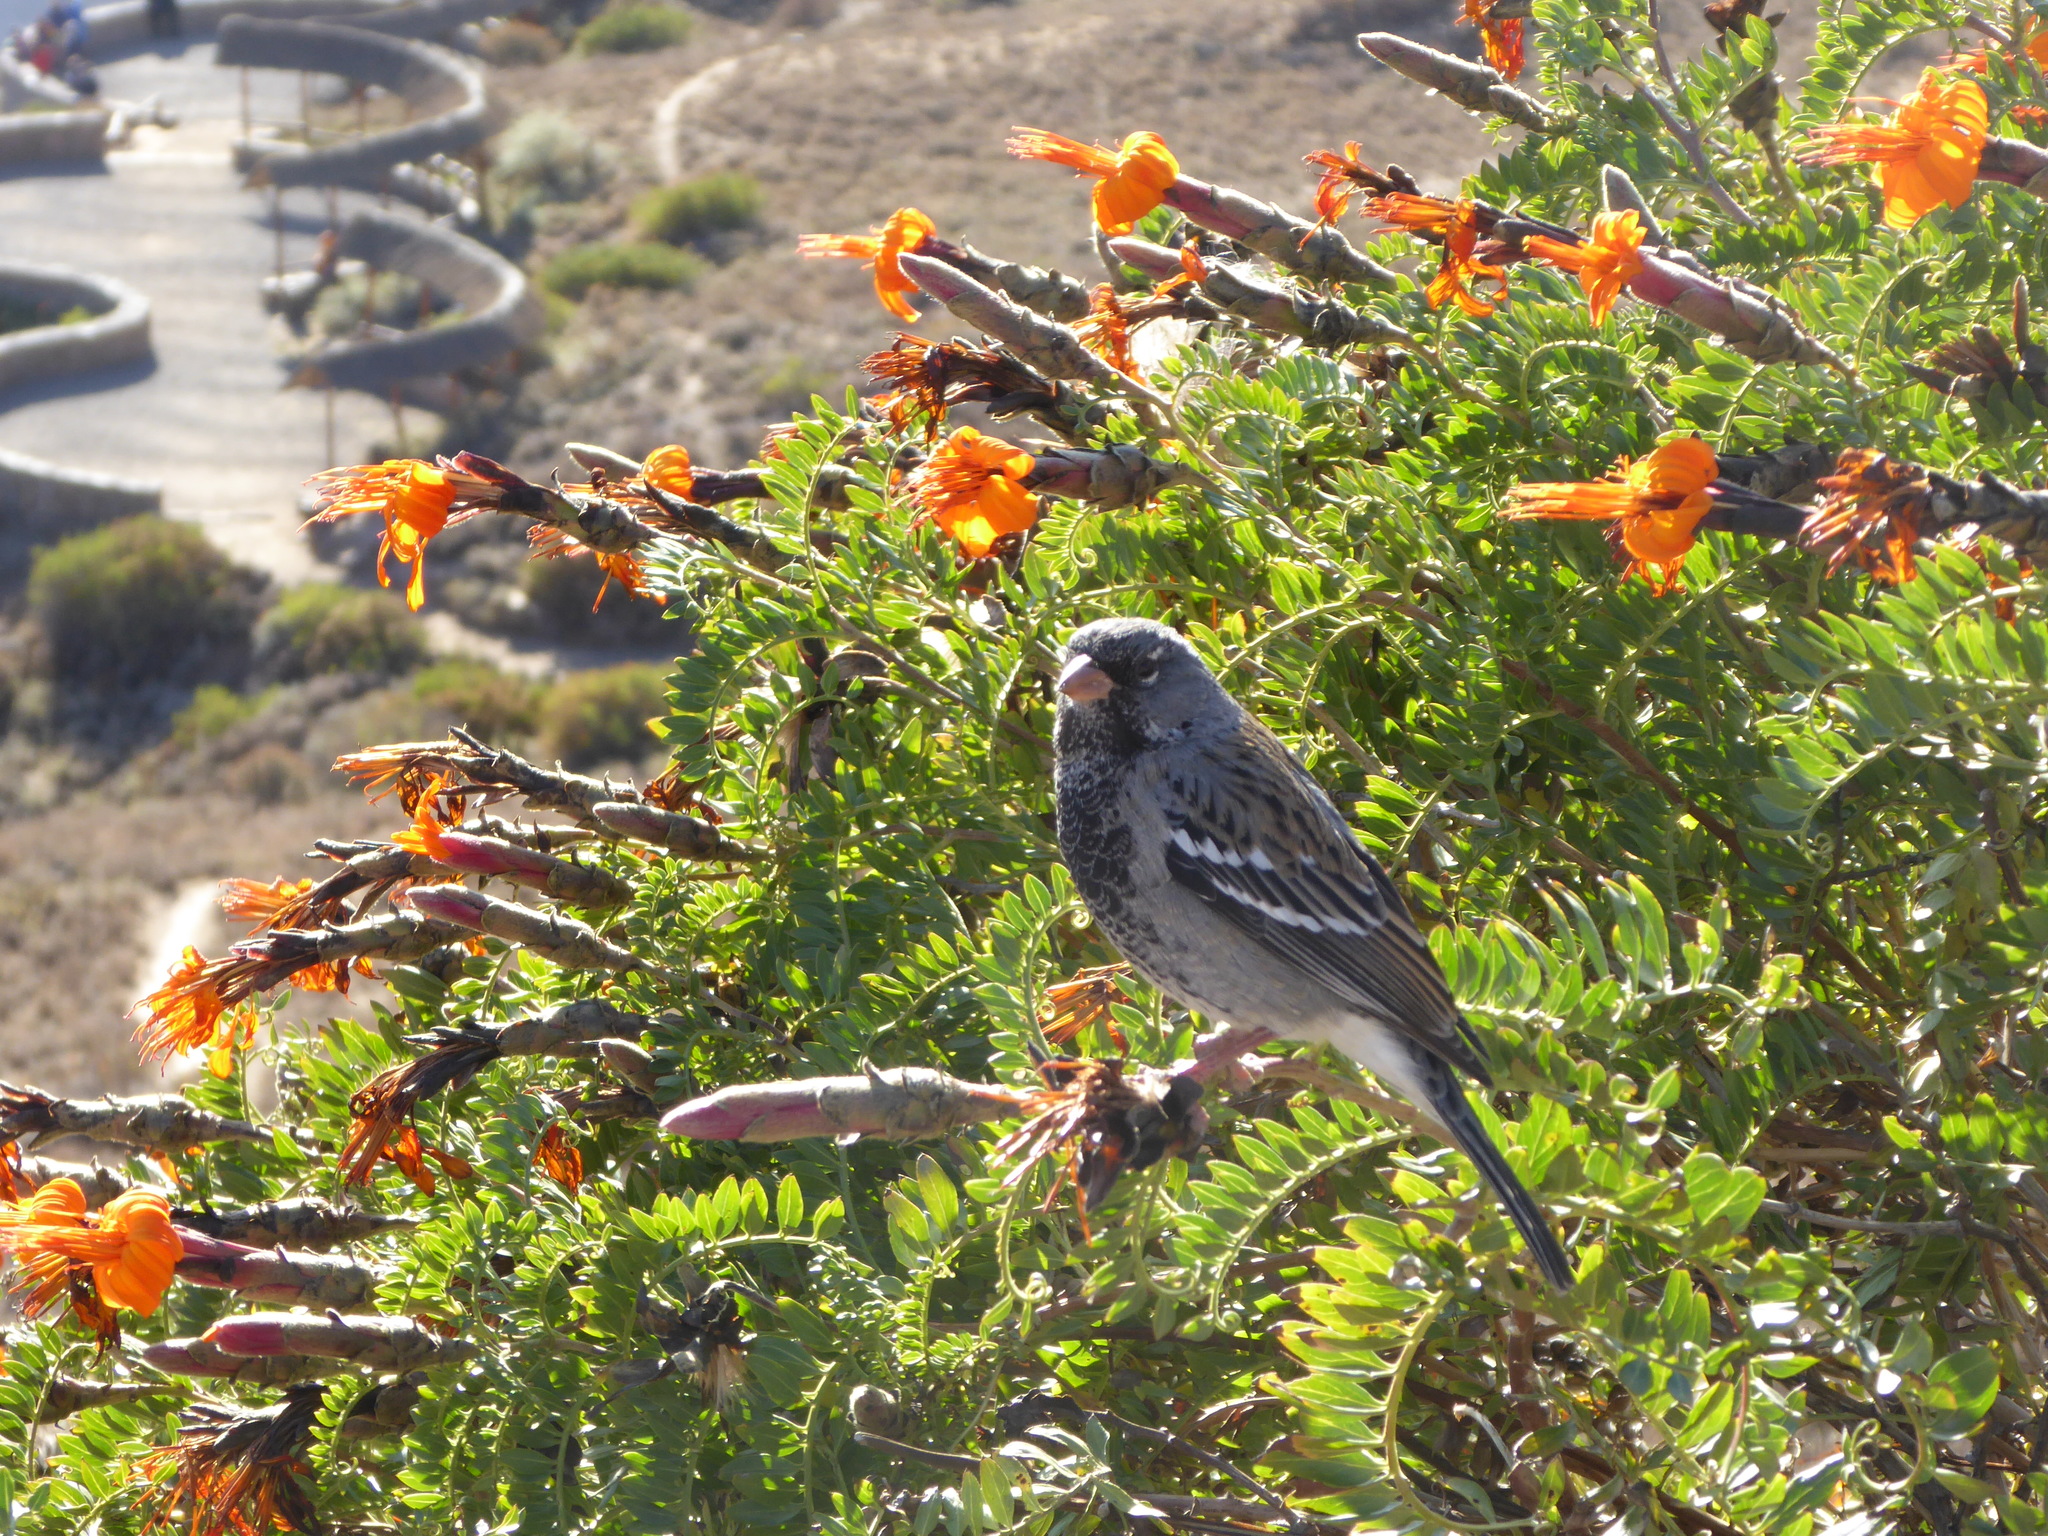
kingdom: Animalia
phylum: Chordata
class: Aves
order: Passeriformes
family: Thraupidae
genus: Rhopospina
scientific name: Rhopospina fruticeti
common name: Mourning sierra finch
